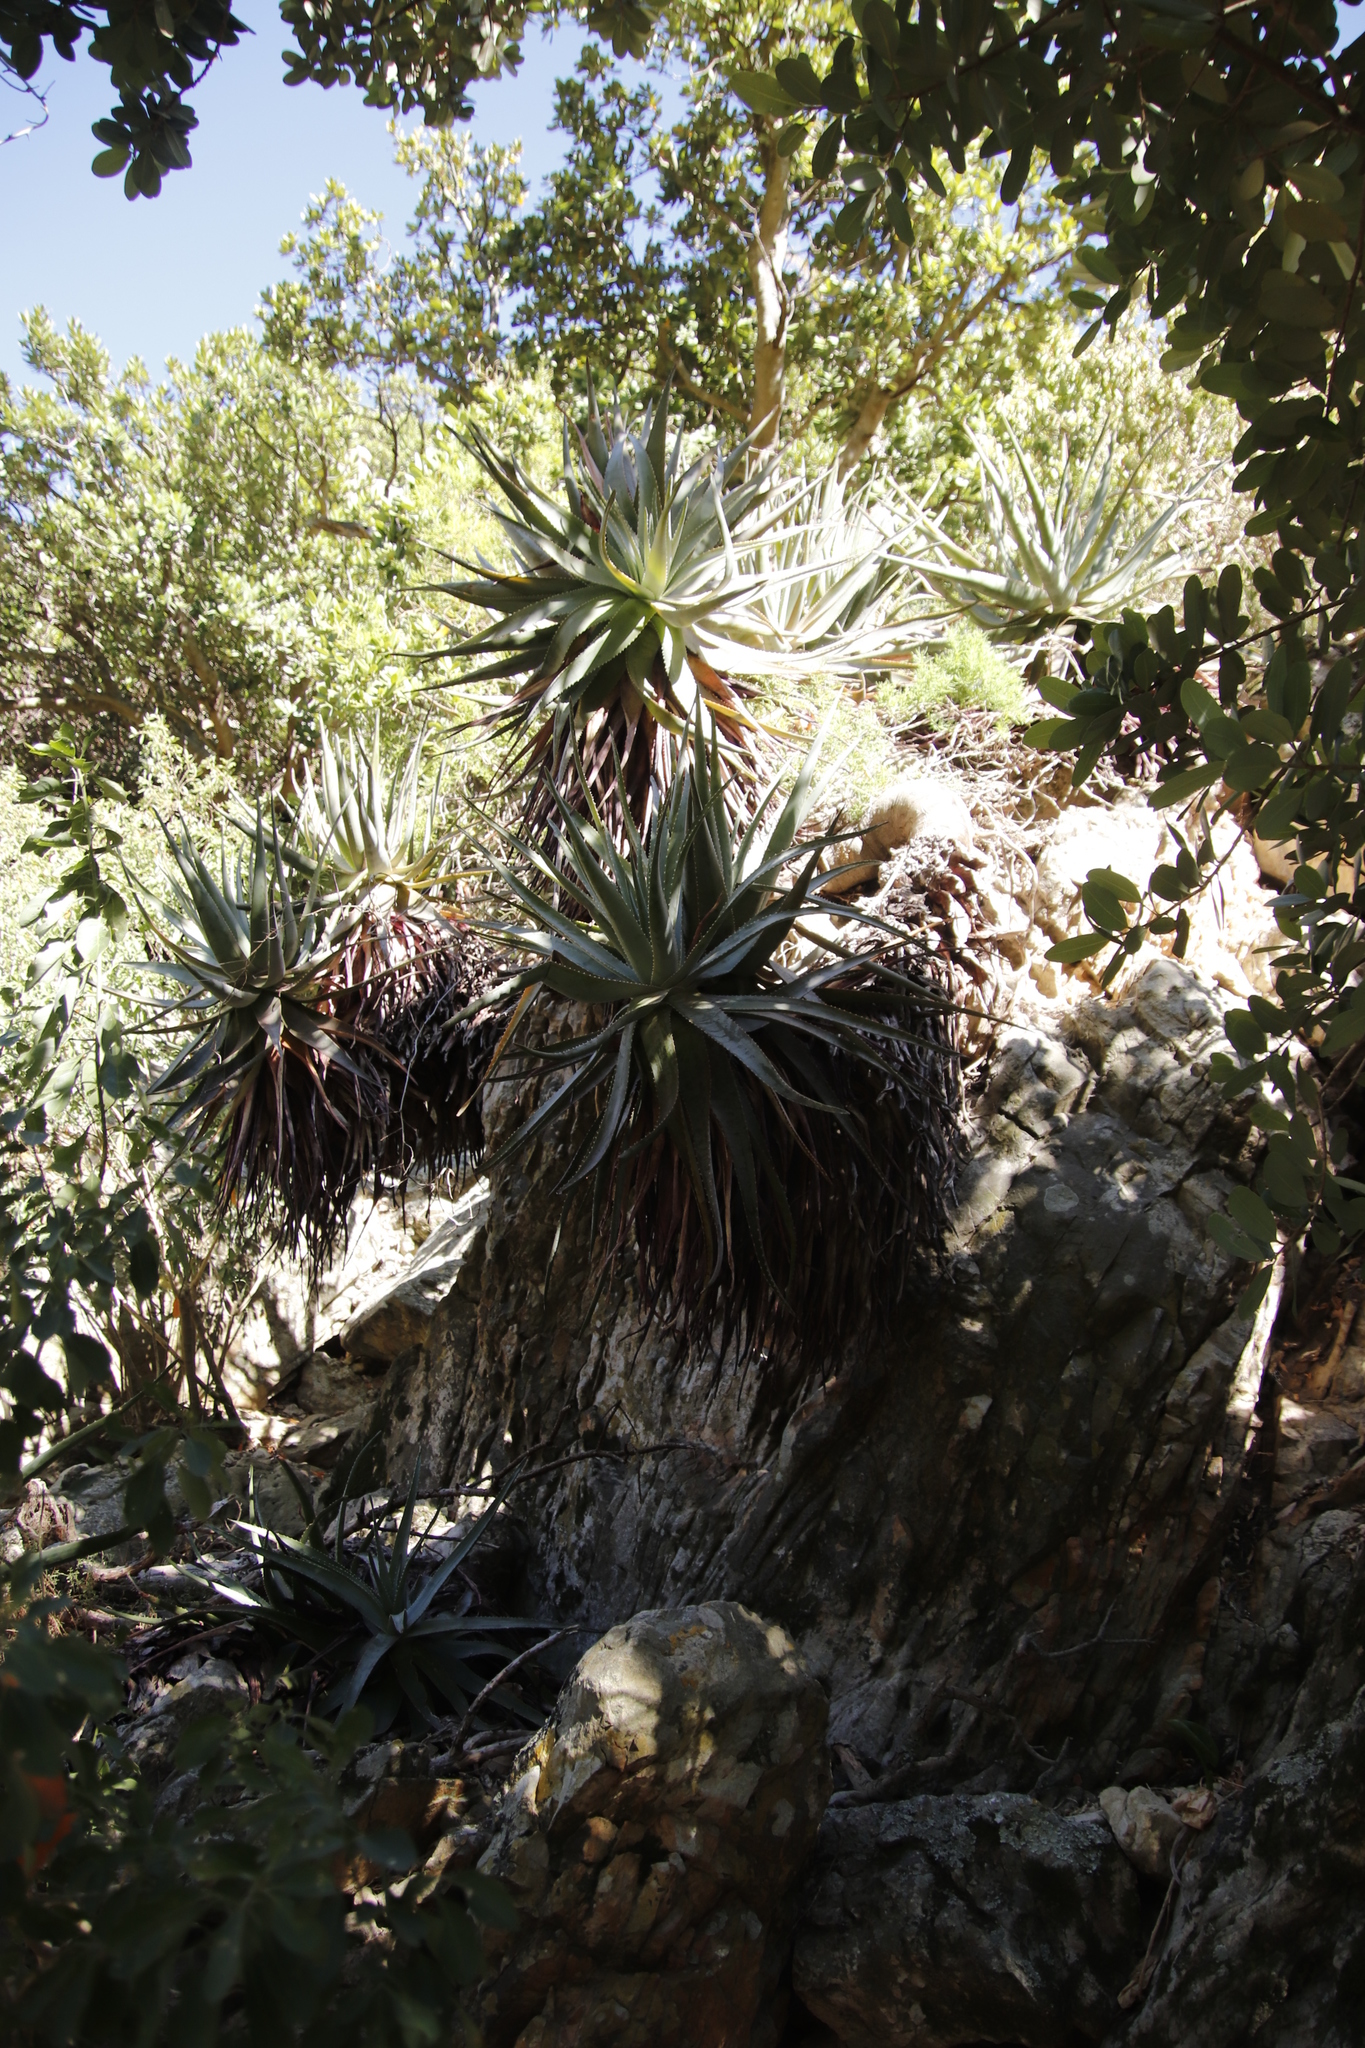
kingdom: Plantae
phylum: Tracheophyta
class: Liliopsida
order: Asparagales
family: Asphodelaceae
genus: Aloe
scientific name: Aloe succotrina
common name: Bombay aloe
